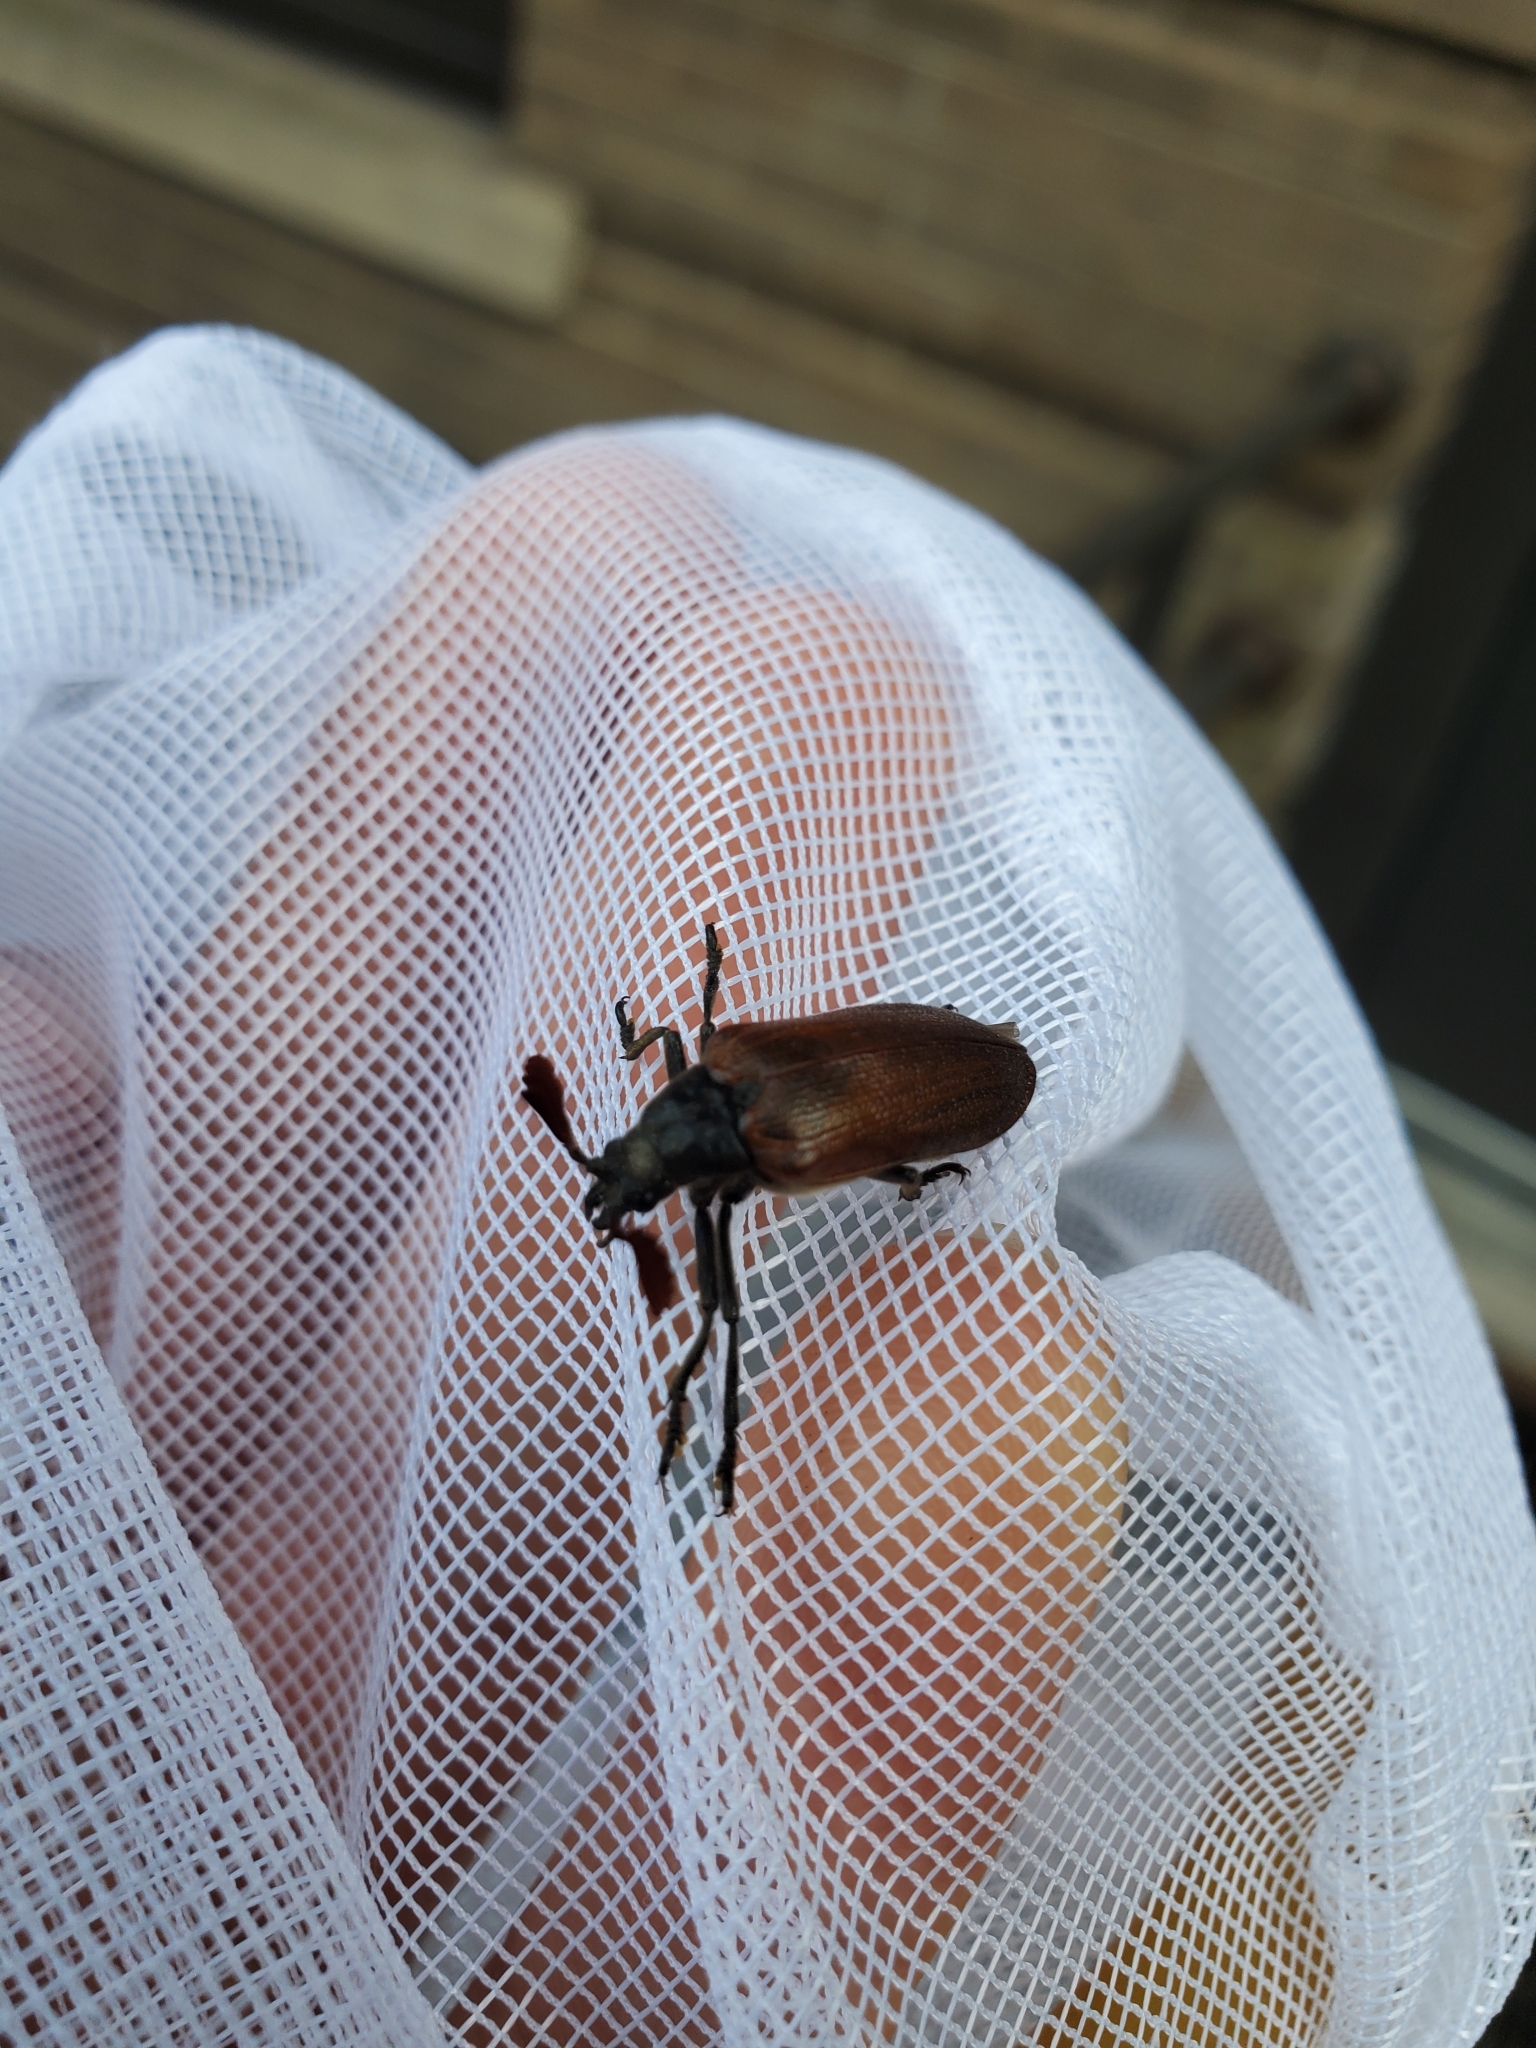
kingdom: Animalia
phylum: Arthropoda
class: Insecta
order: Coleoptera
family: Rhipiceridae
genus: Sandalus
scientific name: Sandalus niger
